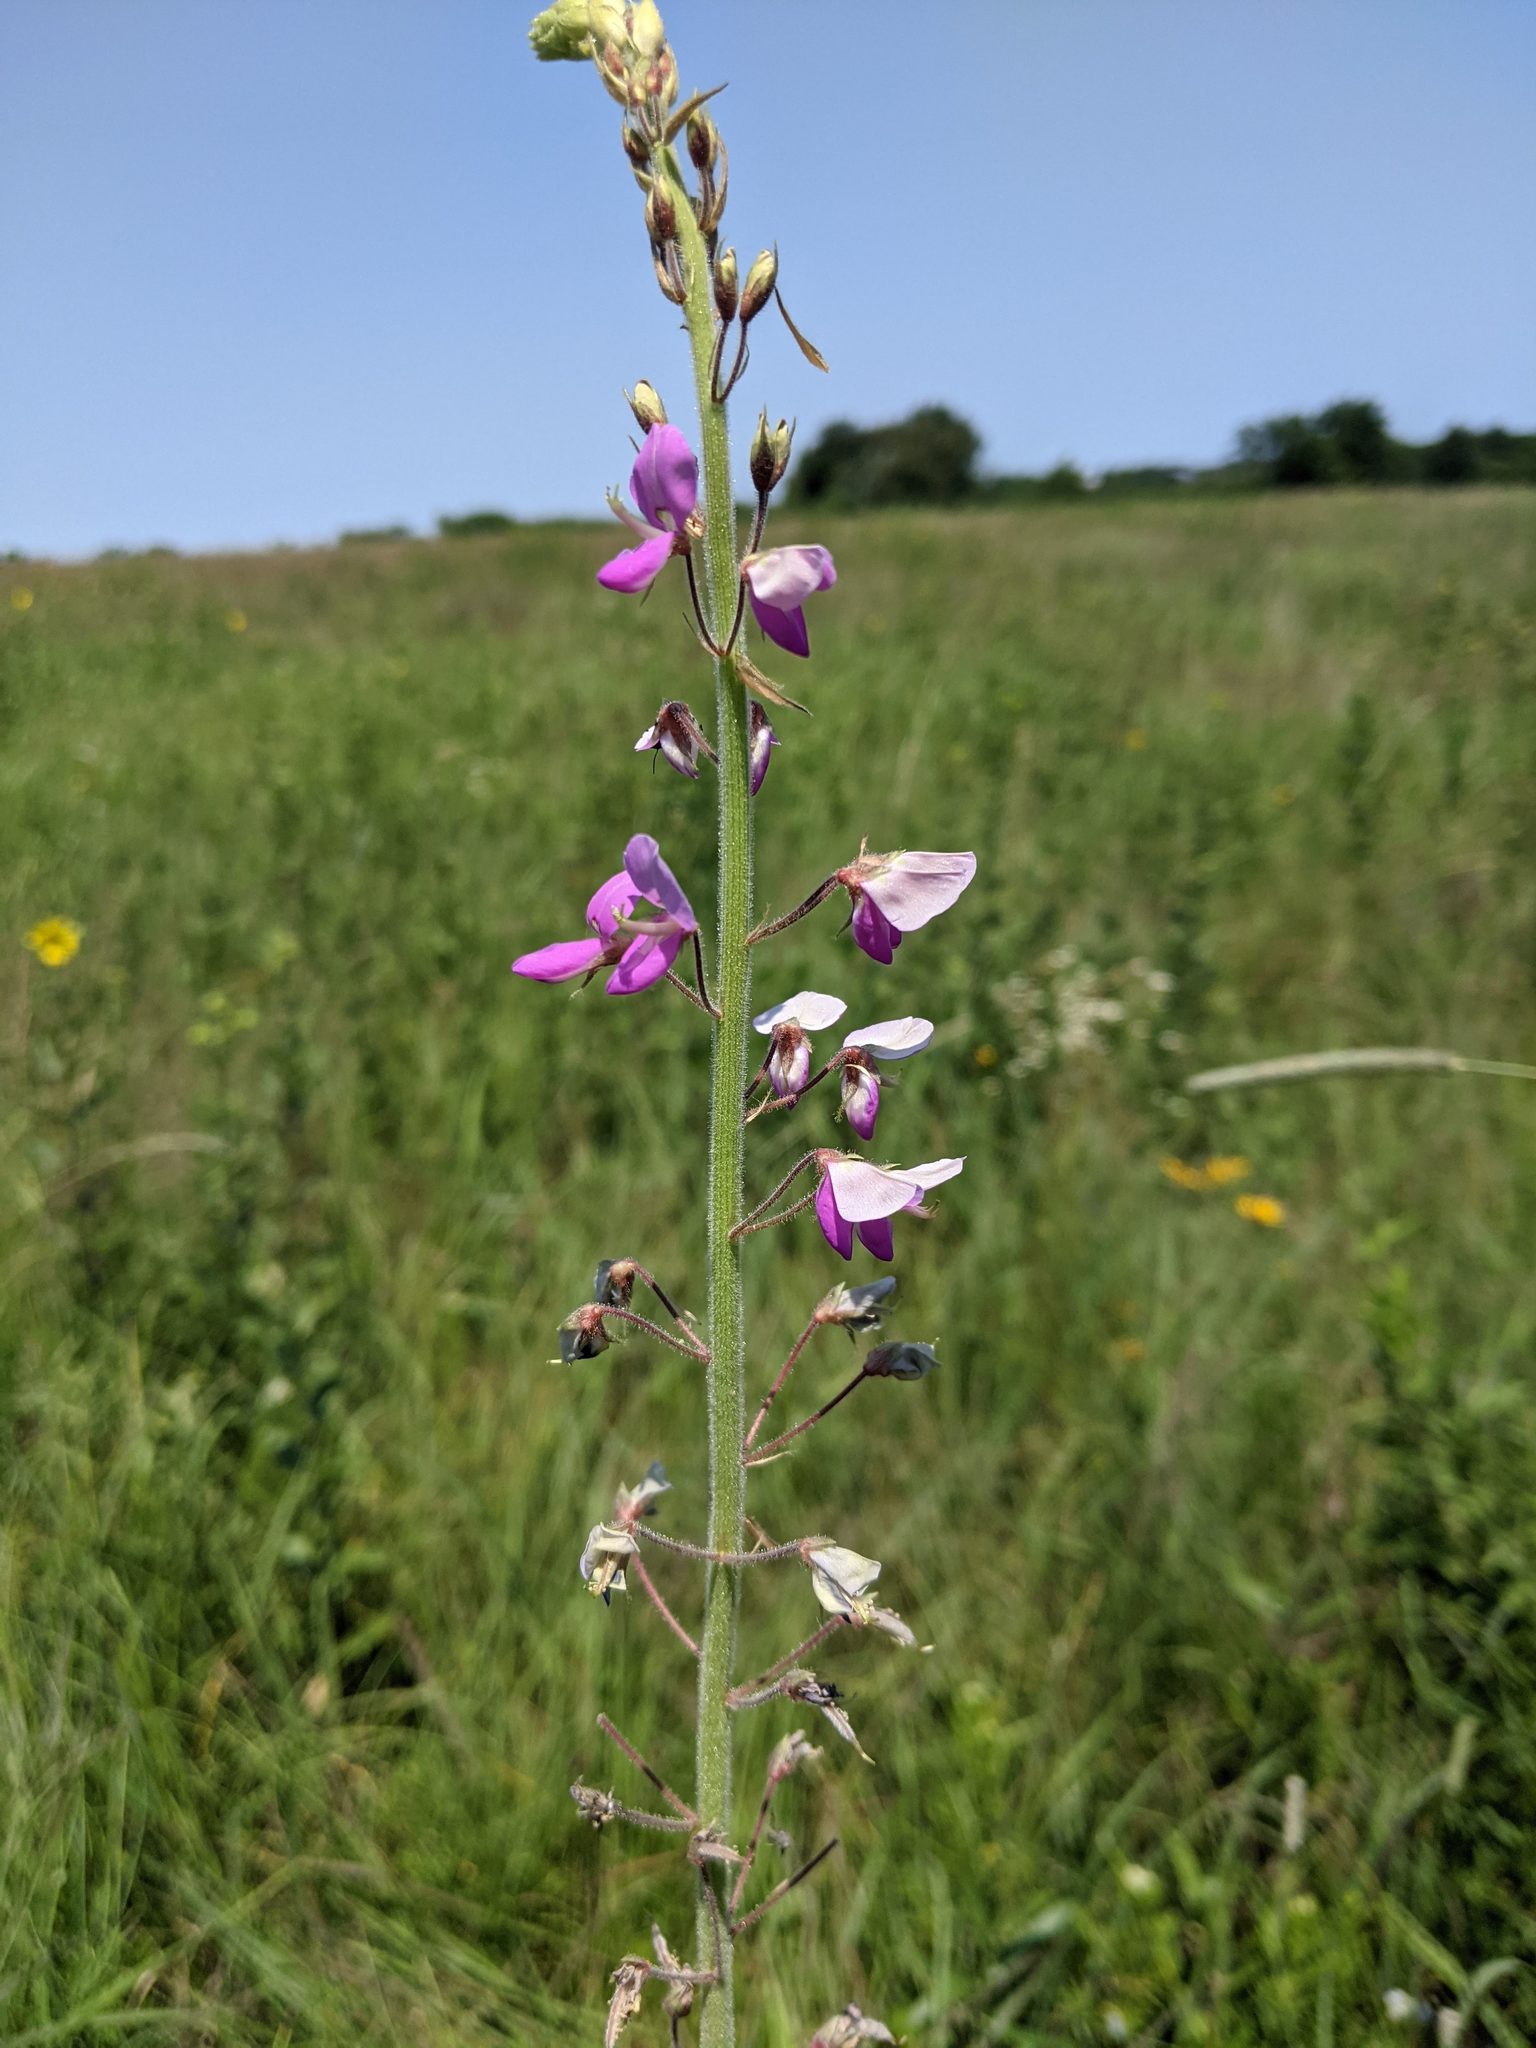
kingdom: Plantae
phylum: Tracheophyta
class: Magnoliopsida
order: Fabales
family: Fabaceae
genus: Desmodium
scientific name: Desmodium illinoense
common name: Illinois tick-clover
